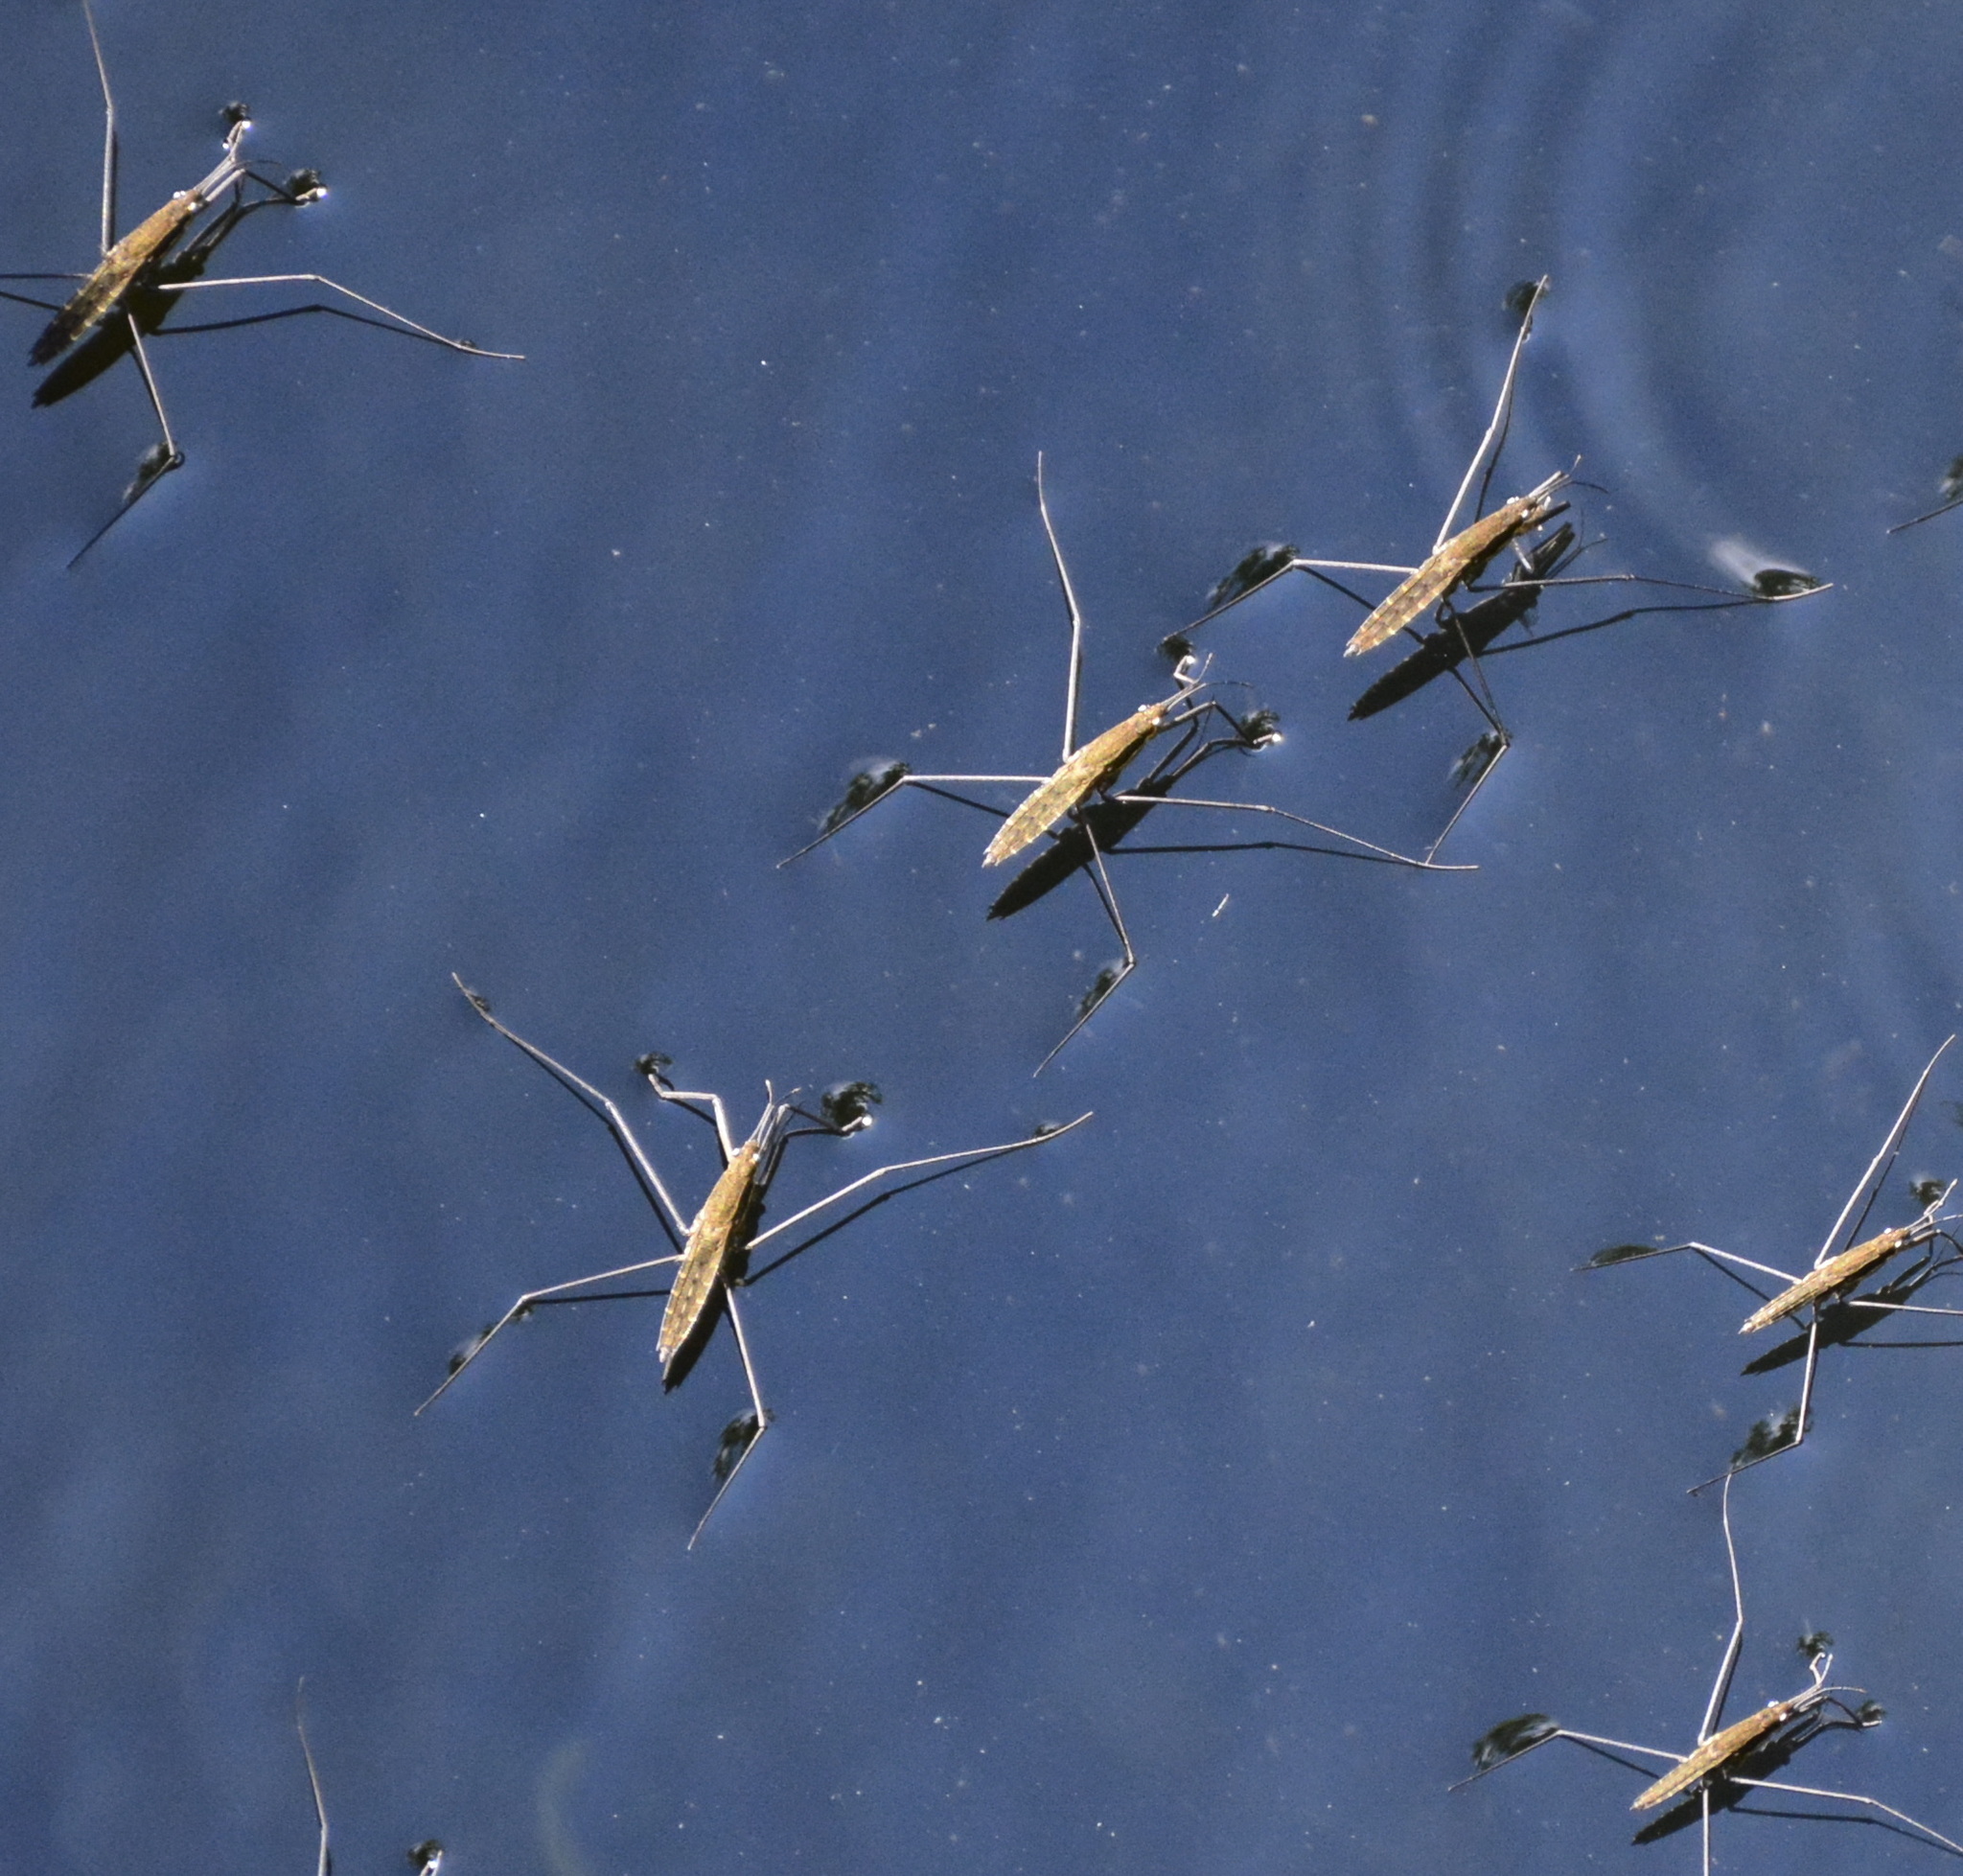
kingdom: Animalia
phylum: Arthropoda
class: Insecta
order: Hemiptera
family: Gerridae
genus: Aquarius
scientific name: Aquarius najas
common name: River skater
